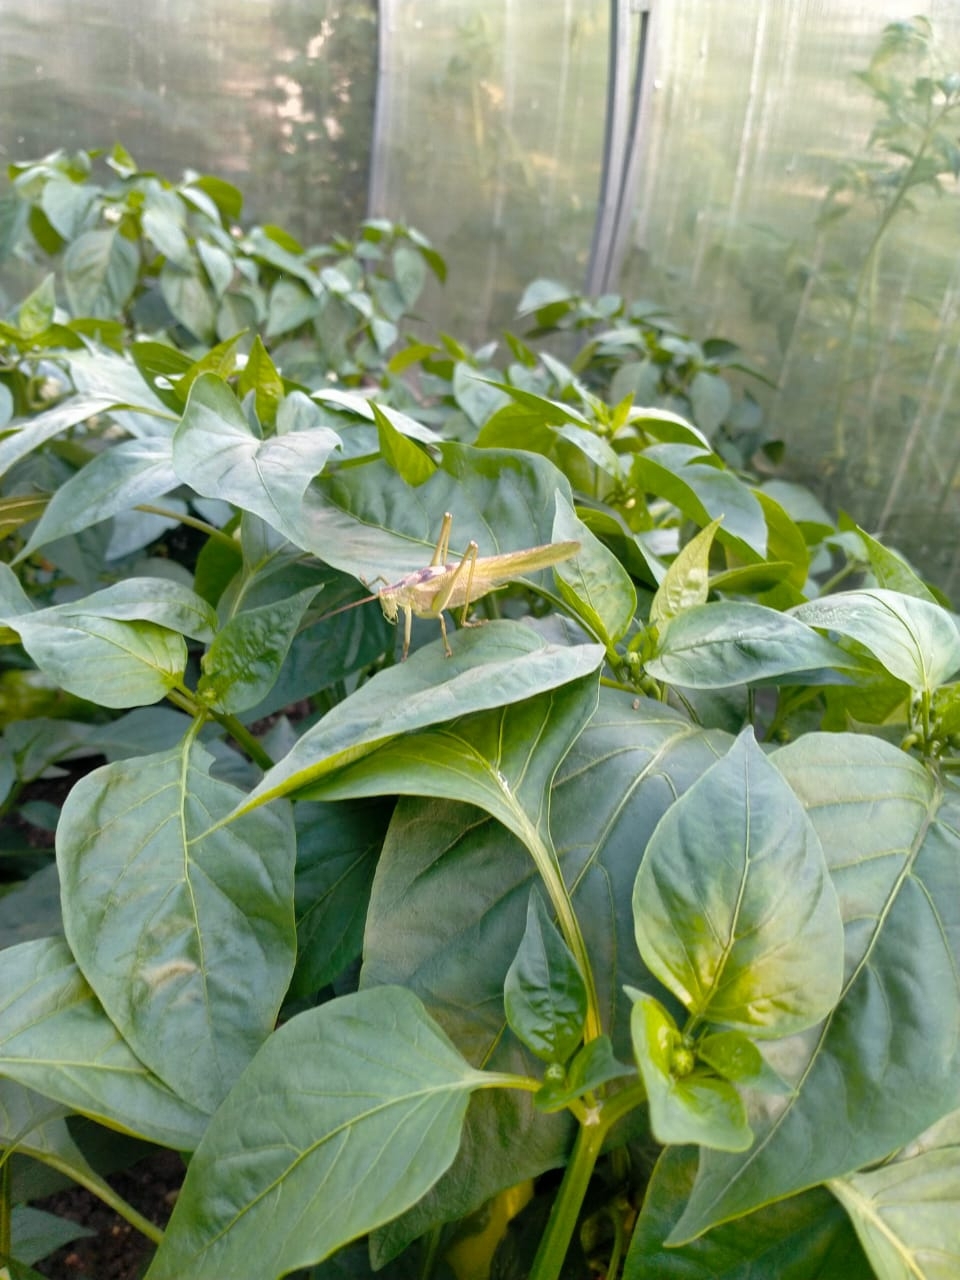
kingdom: Animalia
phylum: Arthropoda
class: Insecta
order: Orthoptera
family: Tettigoniidae
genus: Tettigonia
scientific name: Tettigonia viridissima
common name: Great green bush-cricket
